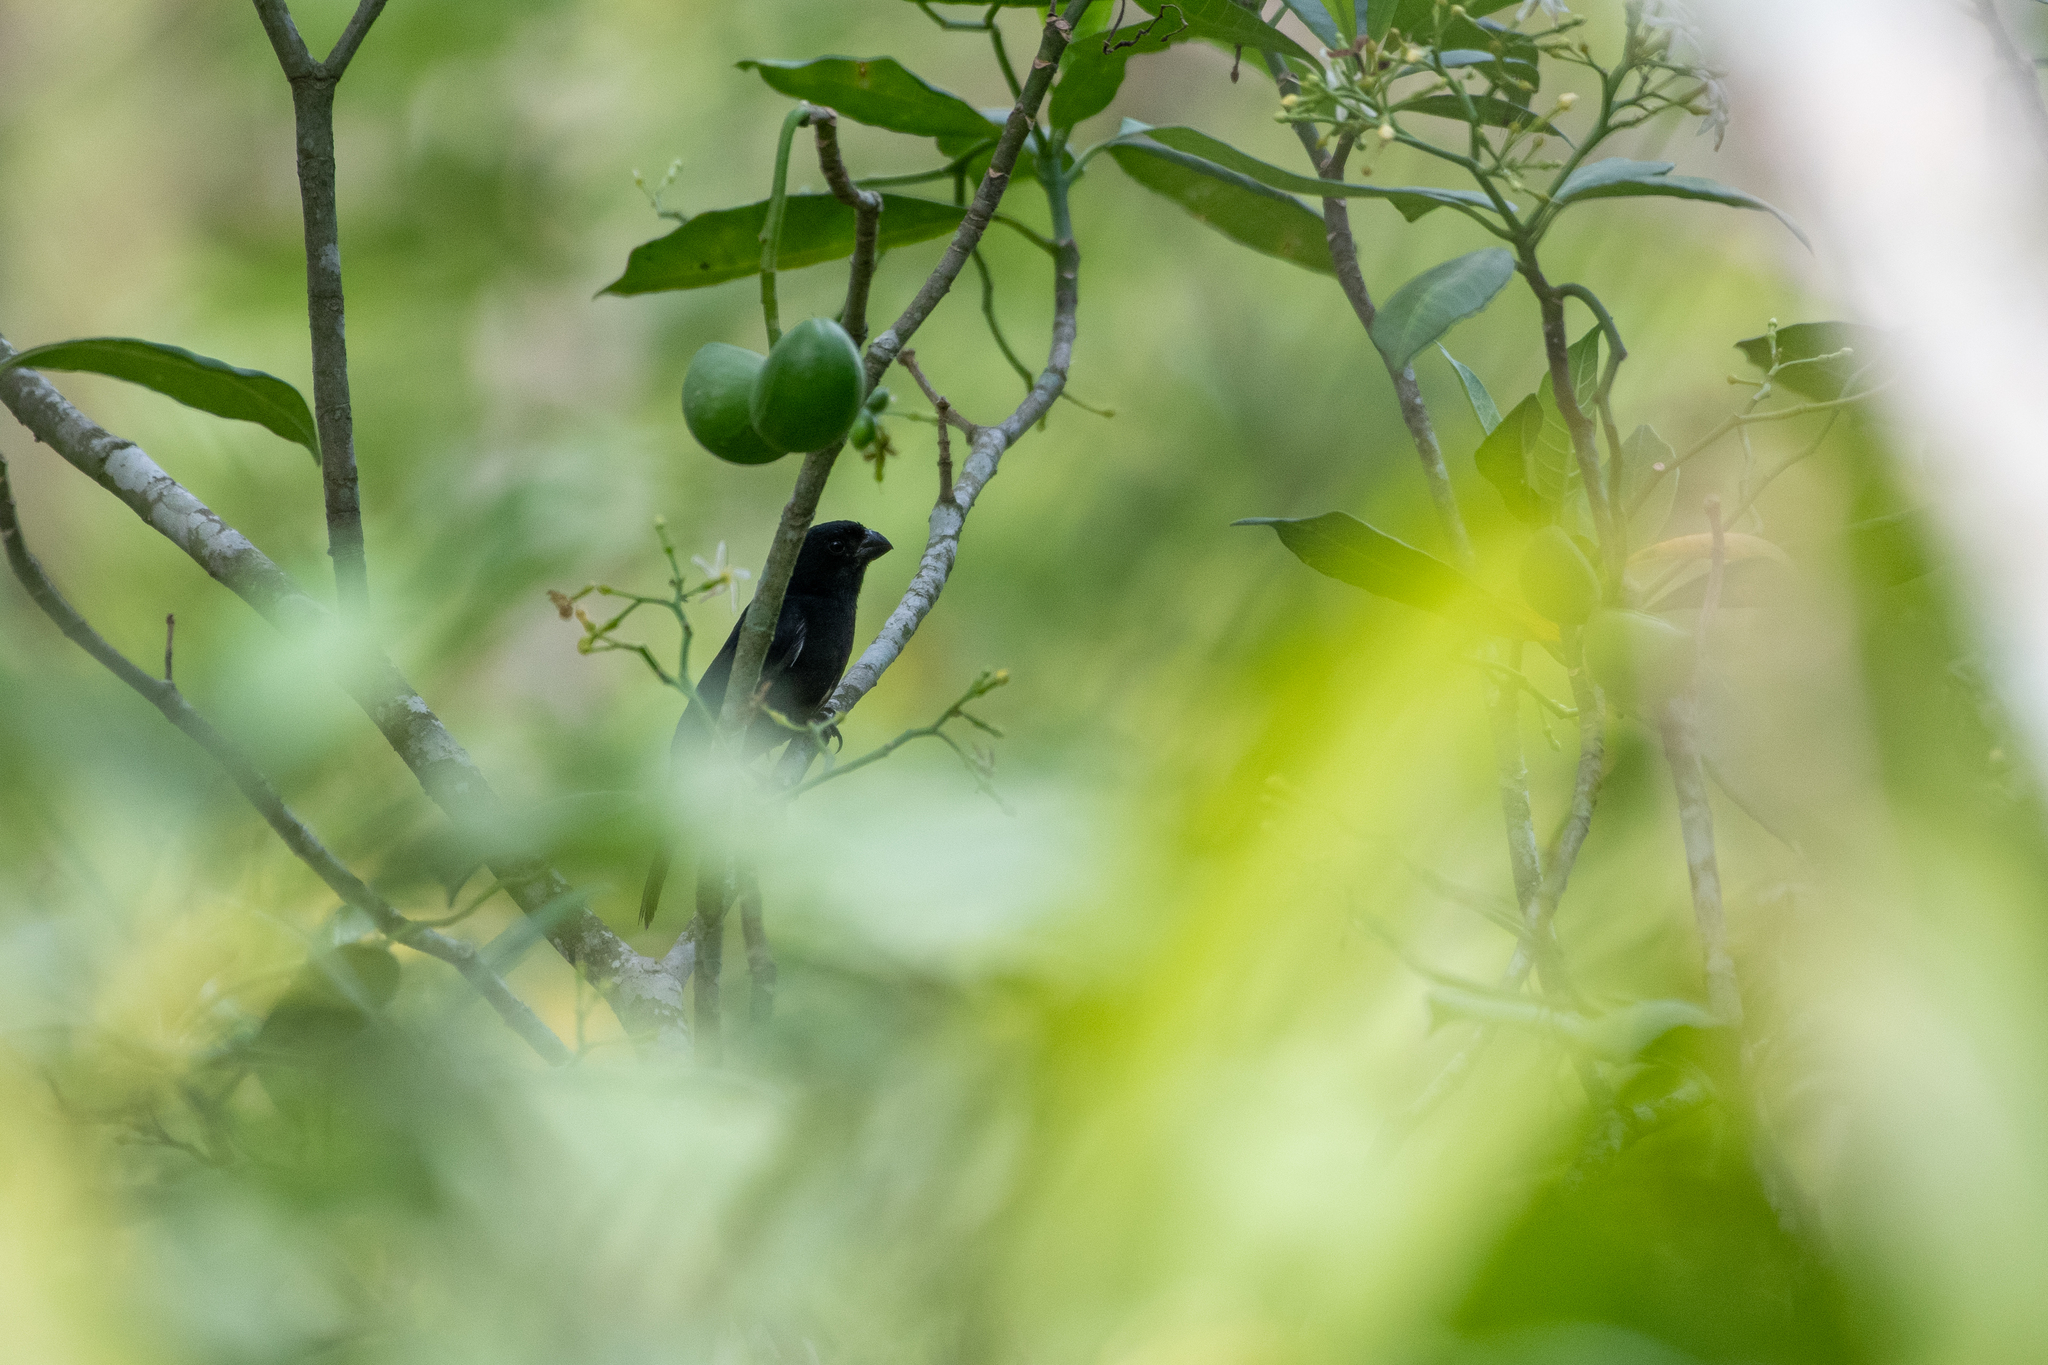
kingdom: Animalia
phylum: Chordata
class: Aves
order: Passeriformes
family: Thraupidae
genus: Sporophila
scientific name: Sporophila corvina
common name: Variable seedeater
